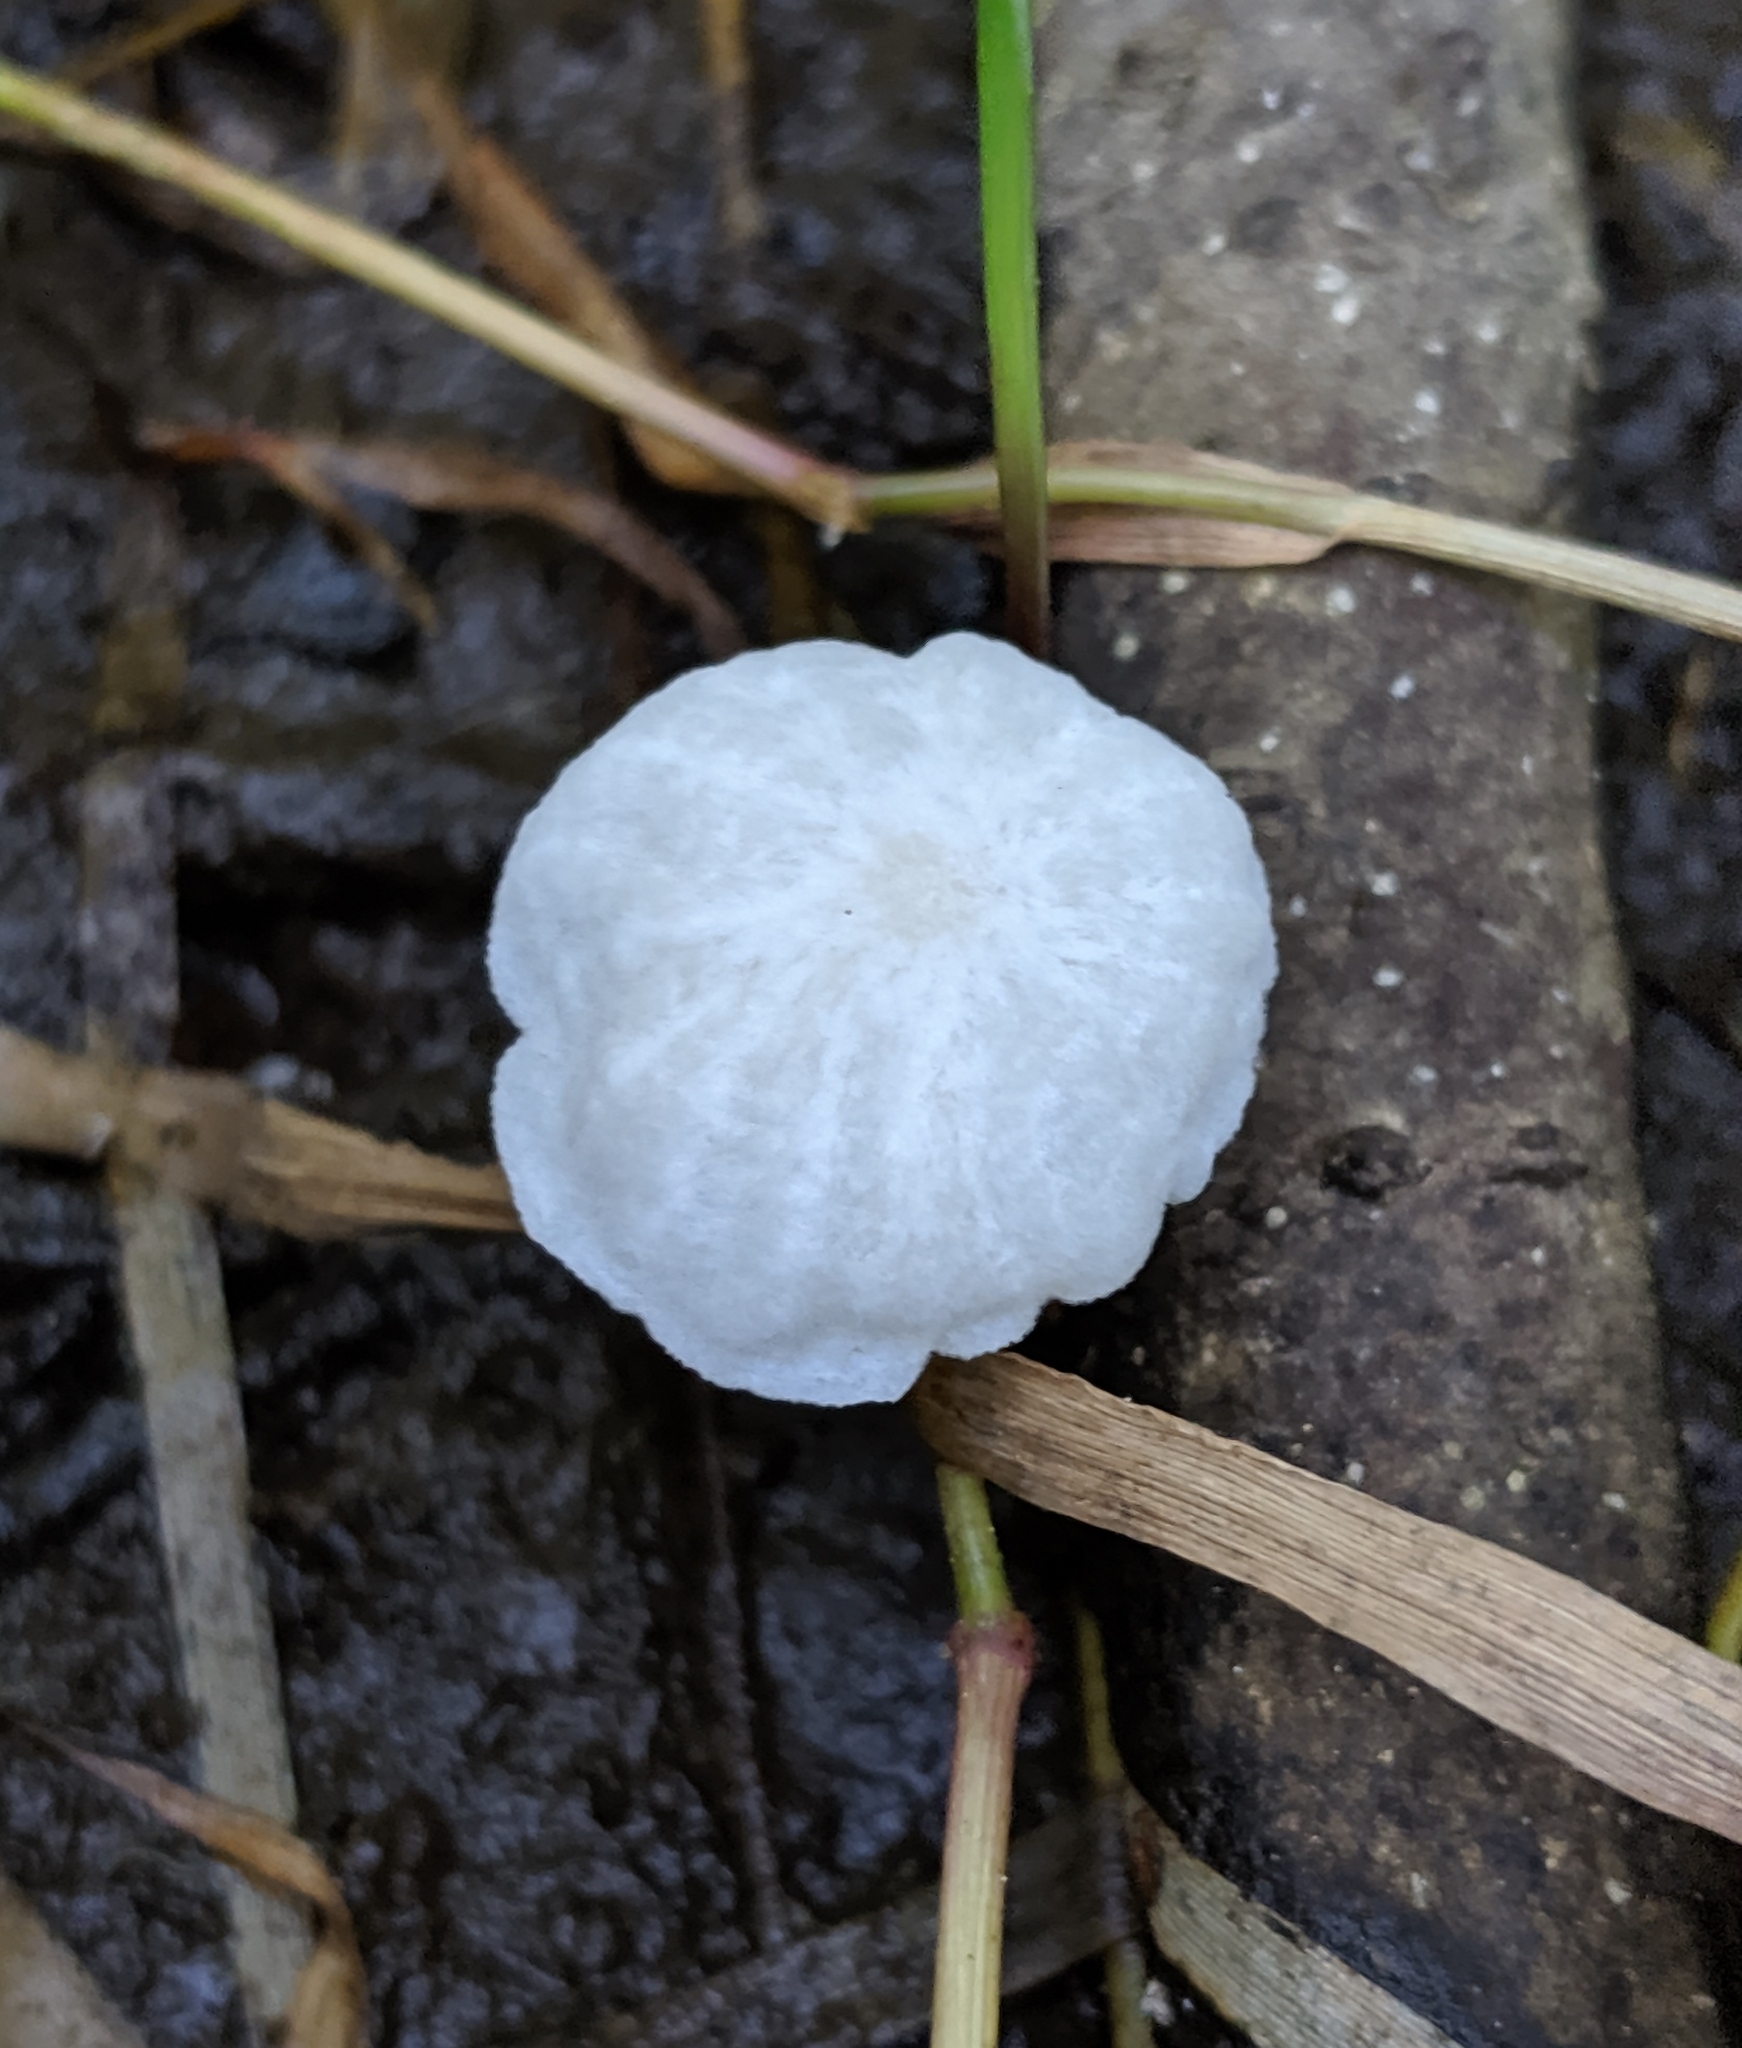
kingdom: Fungi
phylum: Basidiomycota
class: Agaricomycetes
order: Agaricales
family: Omphalotaceae
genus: Marasmiellus
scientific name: Marasmiellus candidus
